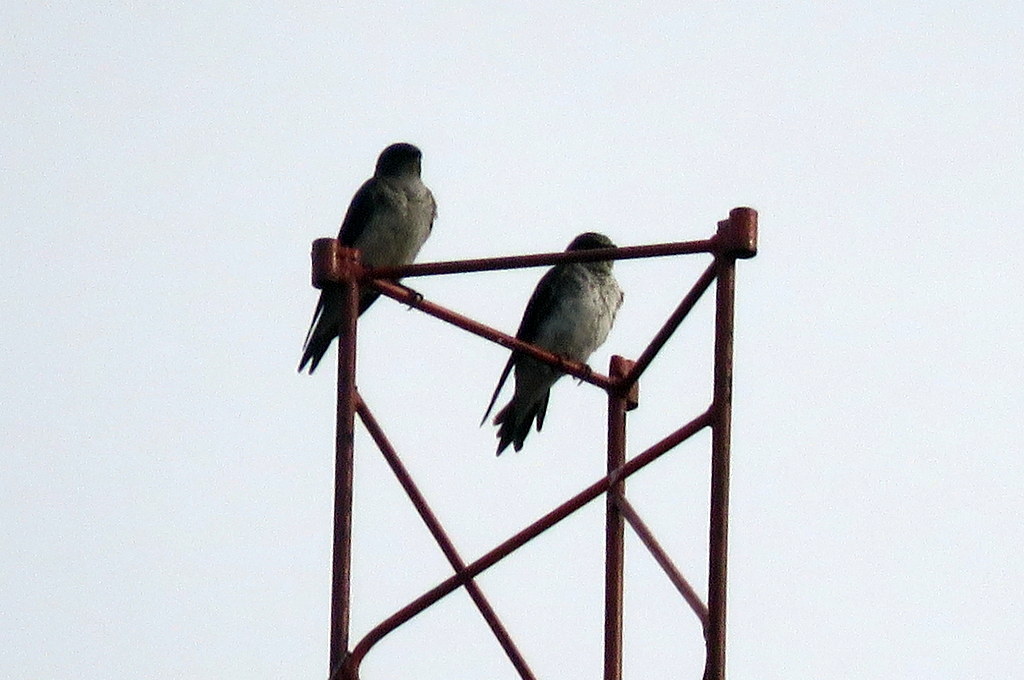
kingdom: Animalia
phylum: Chordata
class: Aves
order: Passeriformes
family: Hirundinidae
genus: Progne
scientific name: Progne chalybea
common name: Grey-breasted martin
